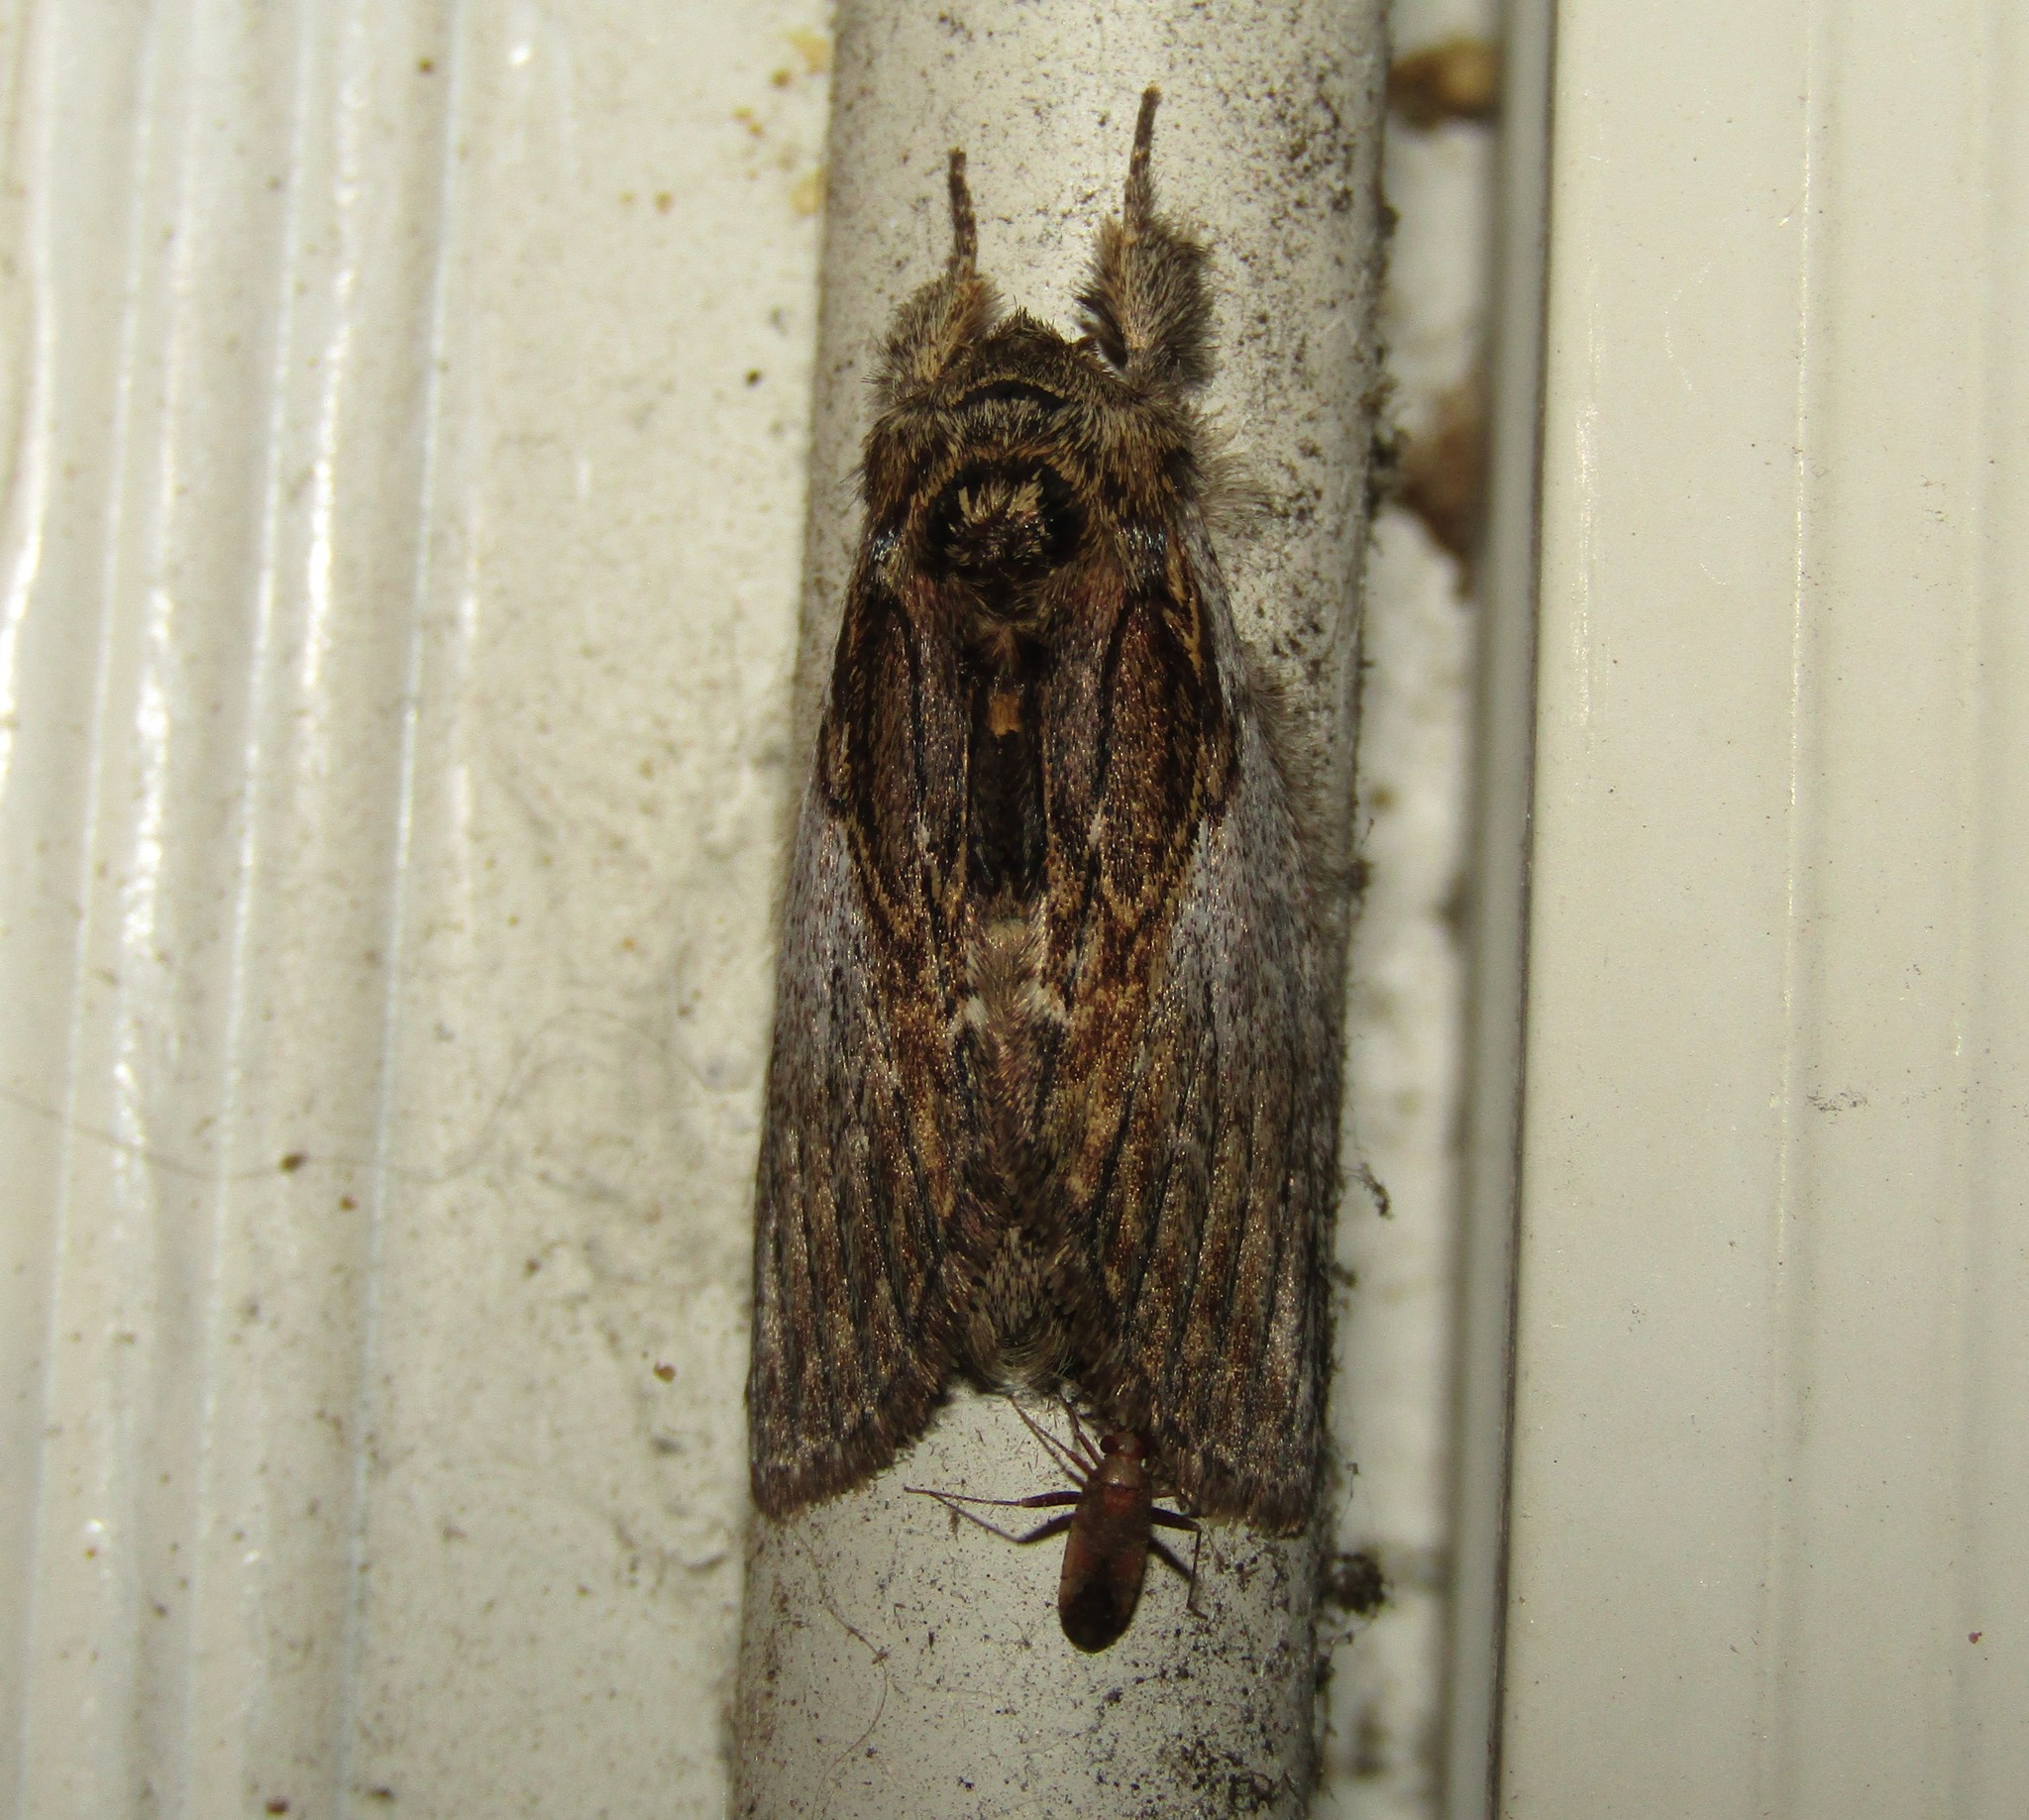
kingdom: Animalia
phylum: Arthropoda
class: Insecta
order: Lepidoptera
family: Notodontidae
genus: Peridea
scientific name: Peridea basitriens
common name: Oval-based prominent
